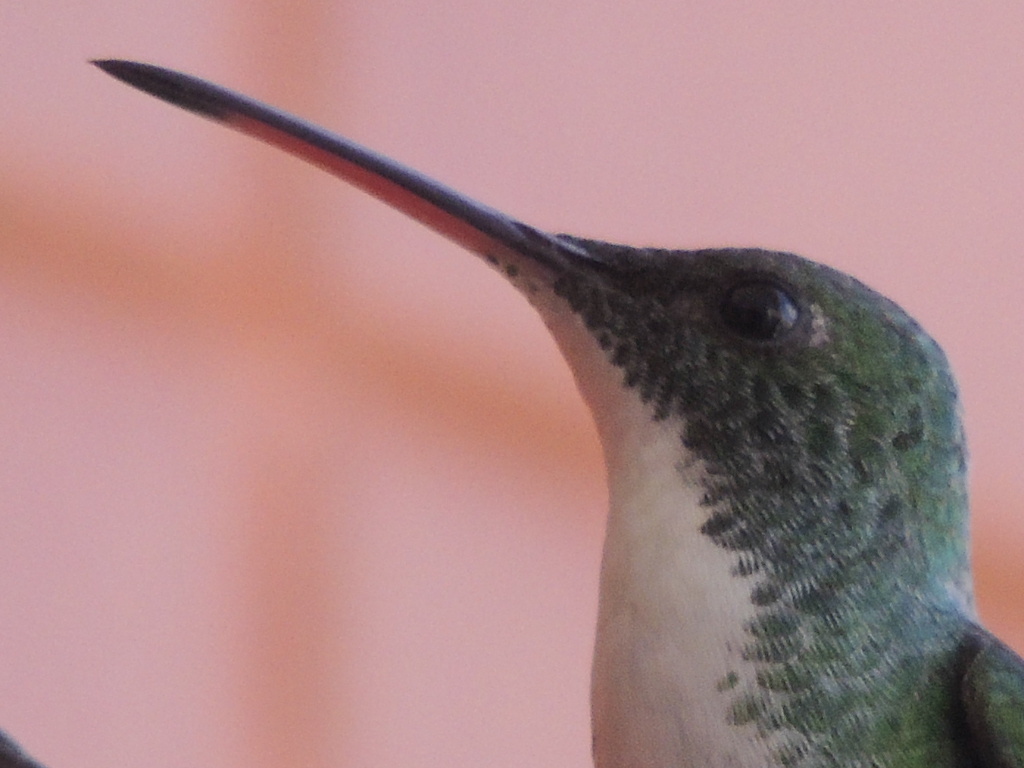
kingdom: Animalia
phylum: Chordata
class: Aves
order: Apodiformes
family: Trochilidae
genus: Chrysuronia
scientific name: Chrysuronia leucogaster
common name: Plain-bellied emerald
